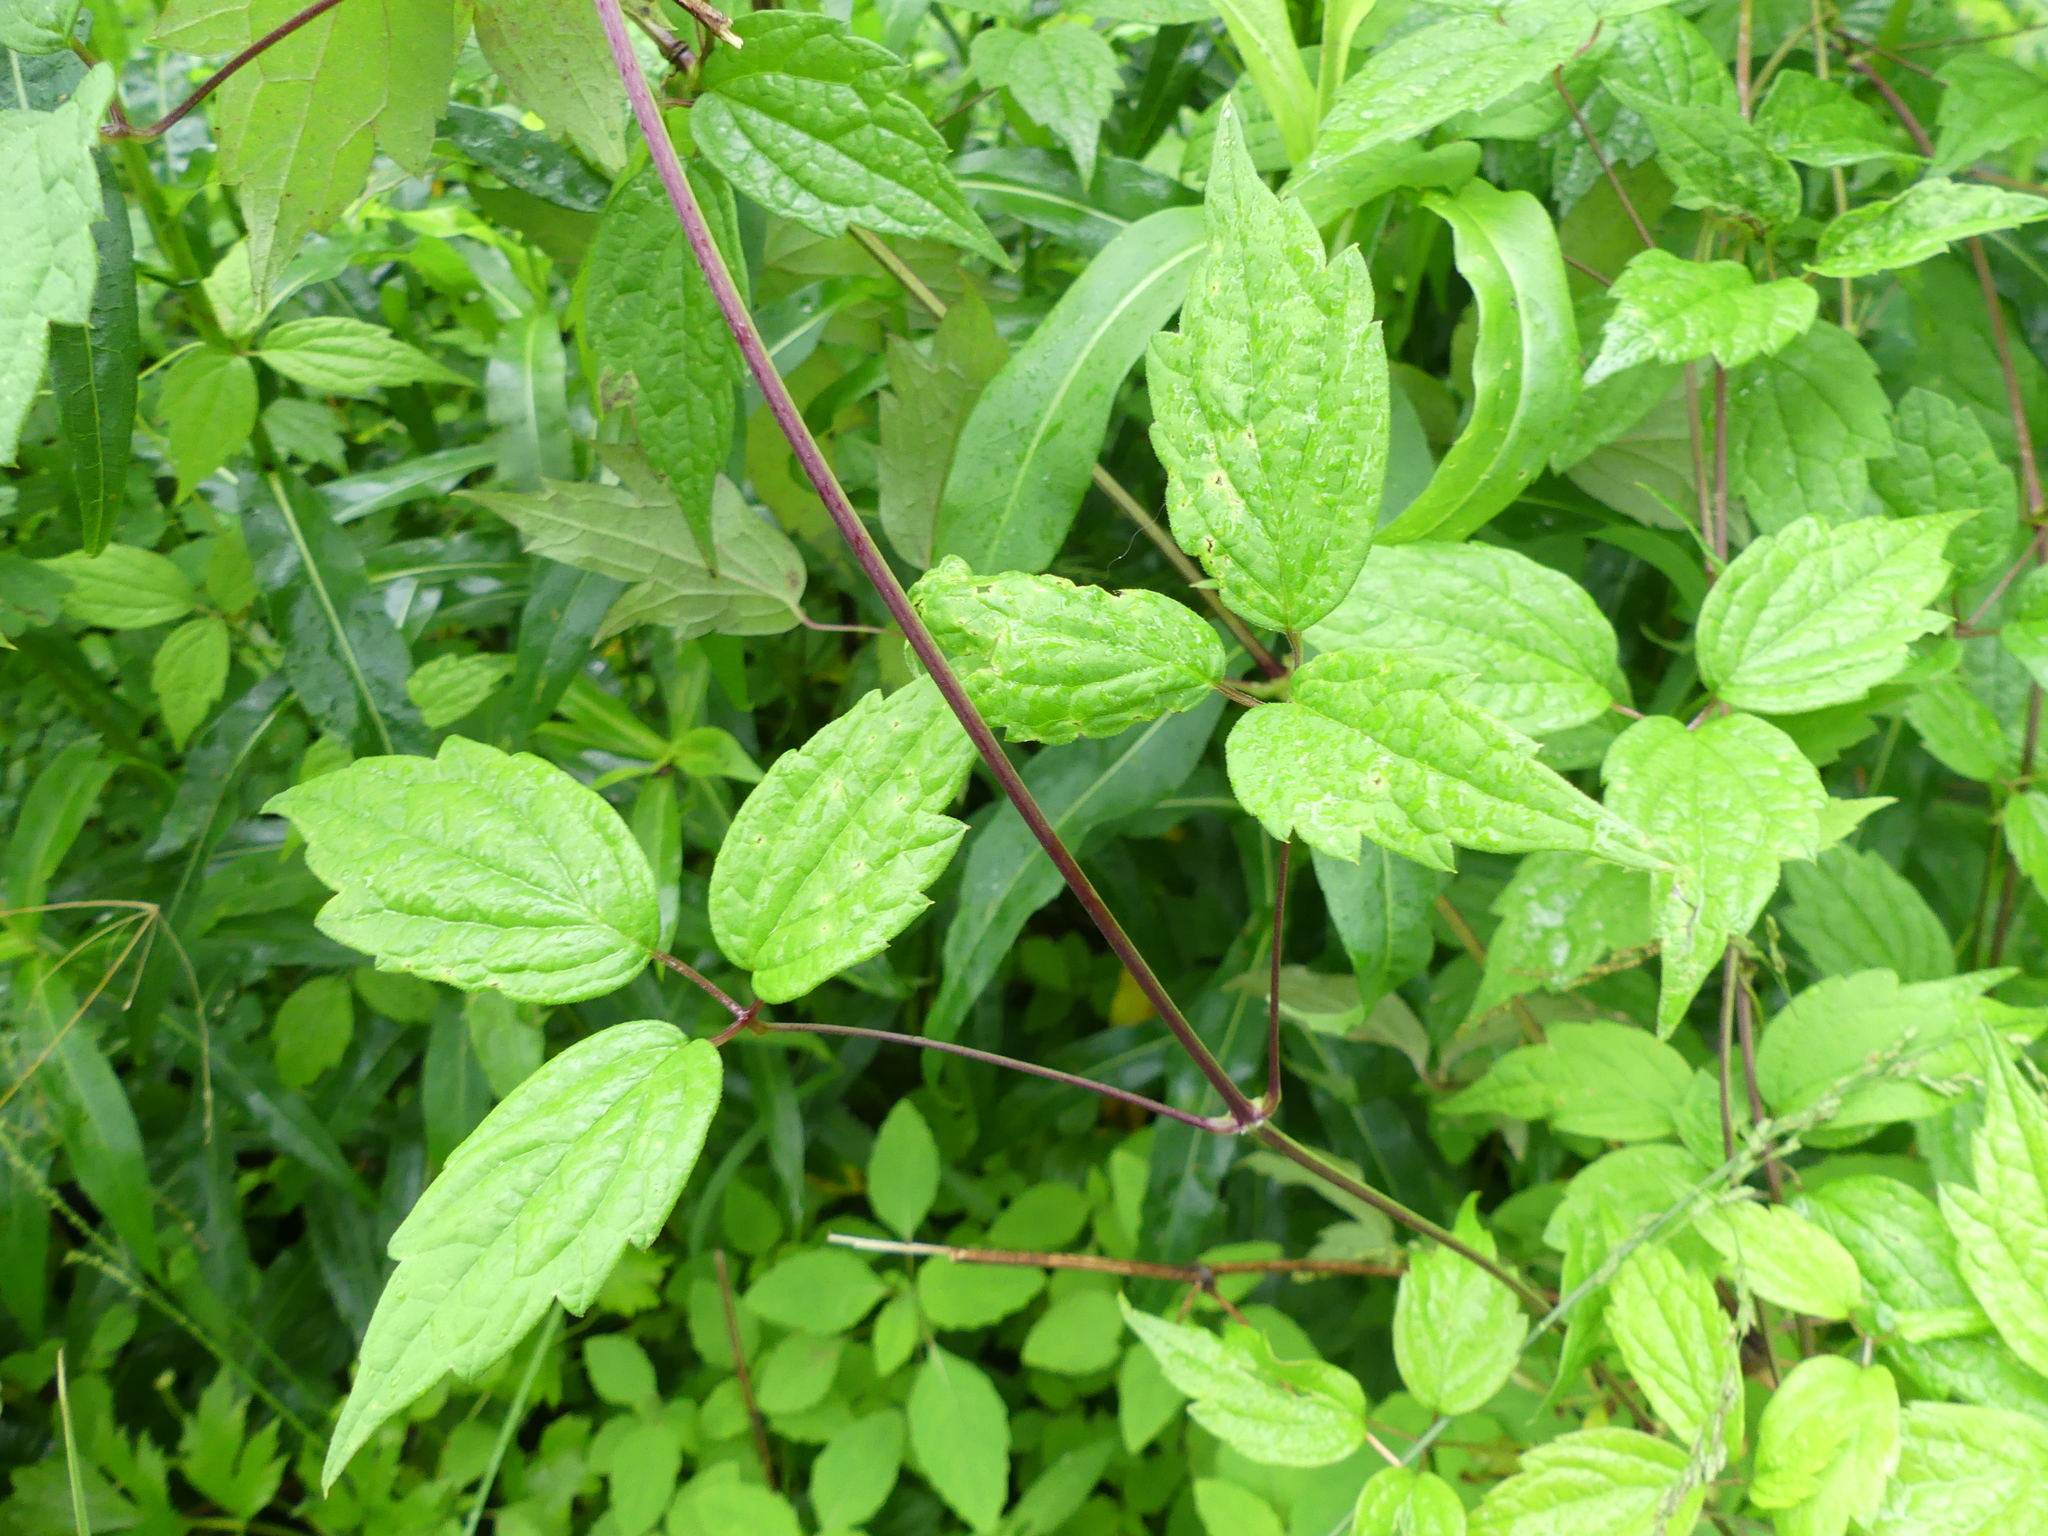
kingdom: Plantae
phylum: Tracheophyta
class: Magnoliopsida
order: Ranunculales
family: Ranunculaceae
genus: Clematis
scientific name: Clematis virginiana
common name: Virgin's-bower
